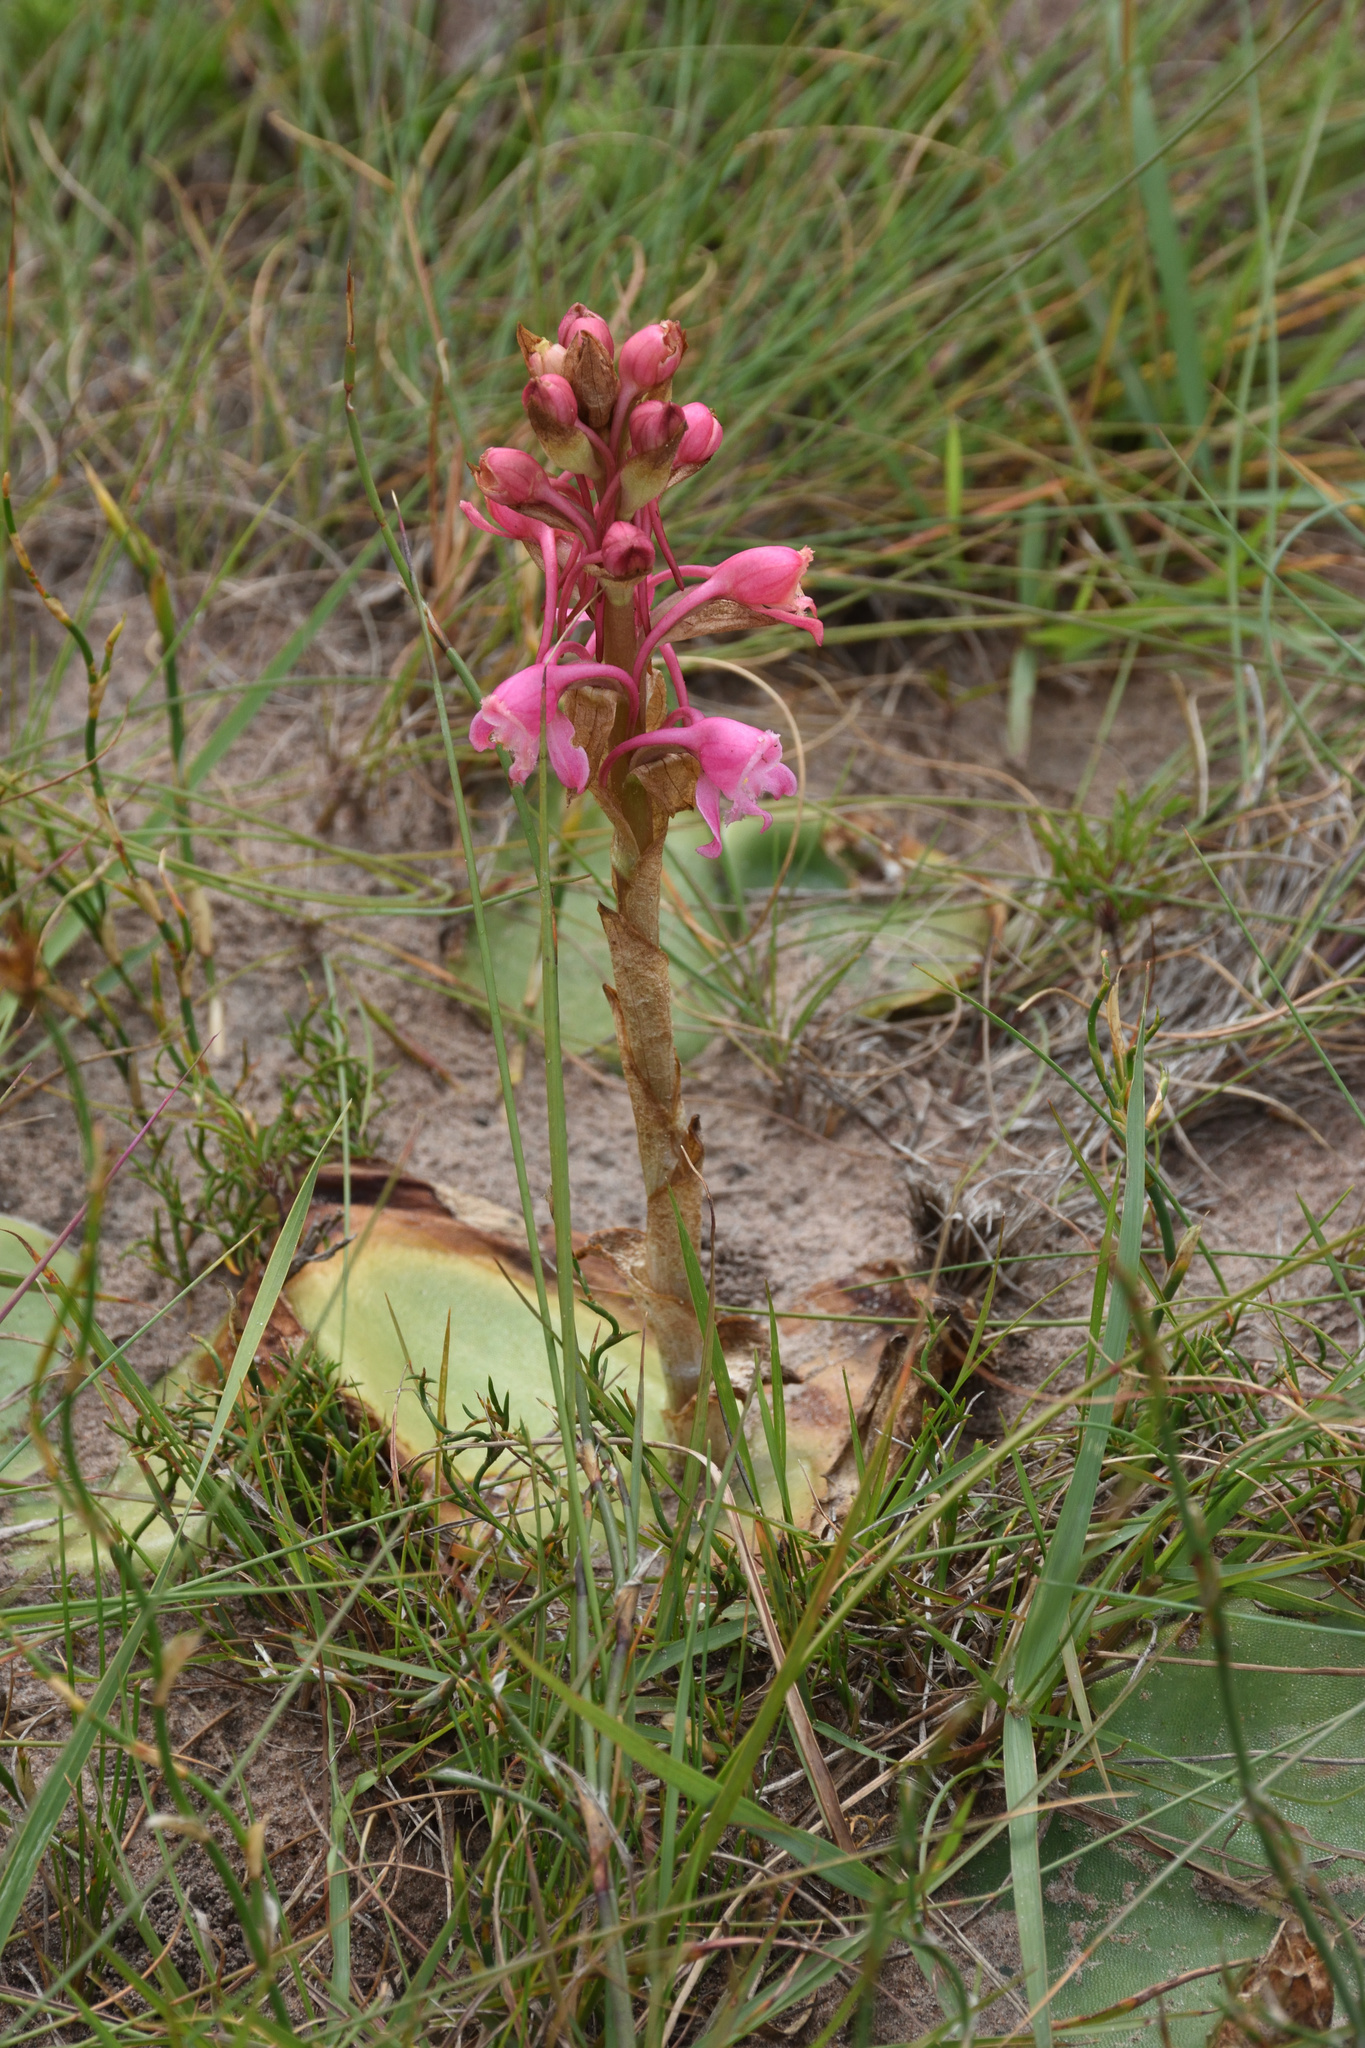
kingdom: Plantae
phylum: Tracheophyta
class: Liliopsida
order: Asparagales
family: Orchidaceae
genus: Satyrium
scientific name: Satyrium membranaceum
